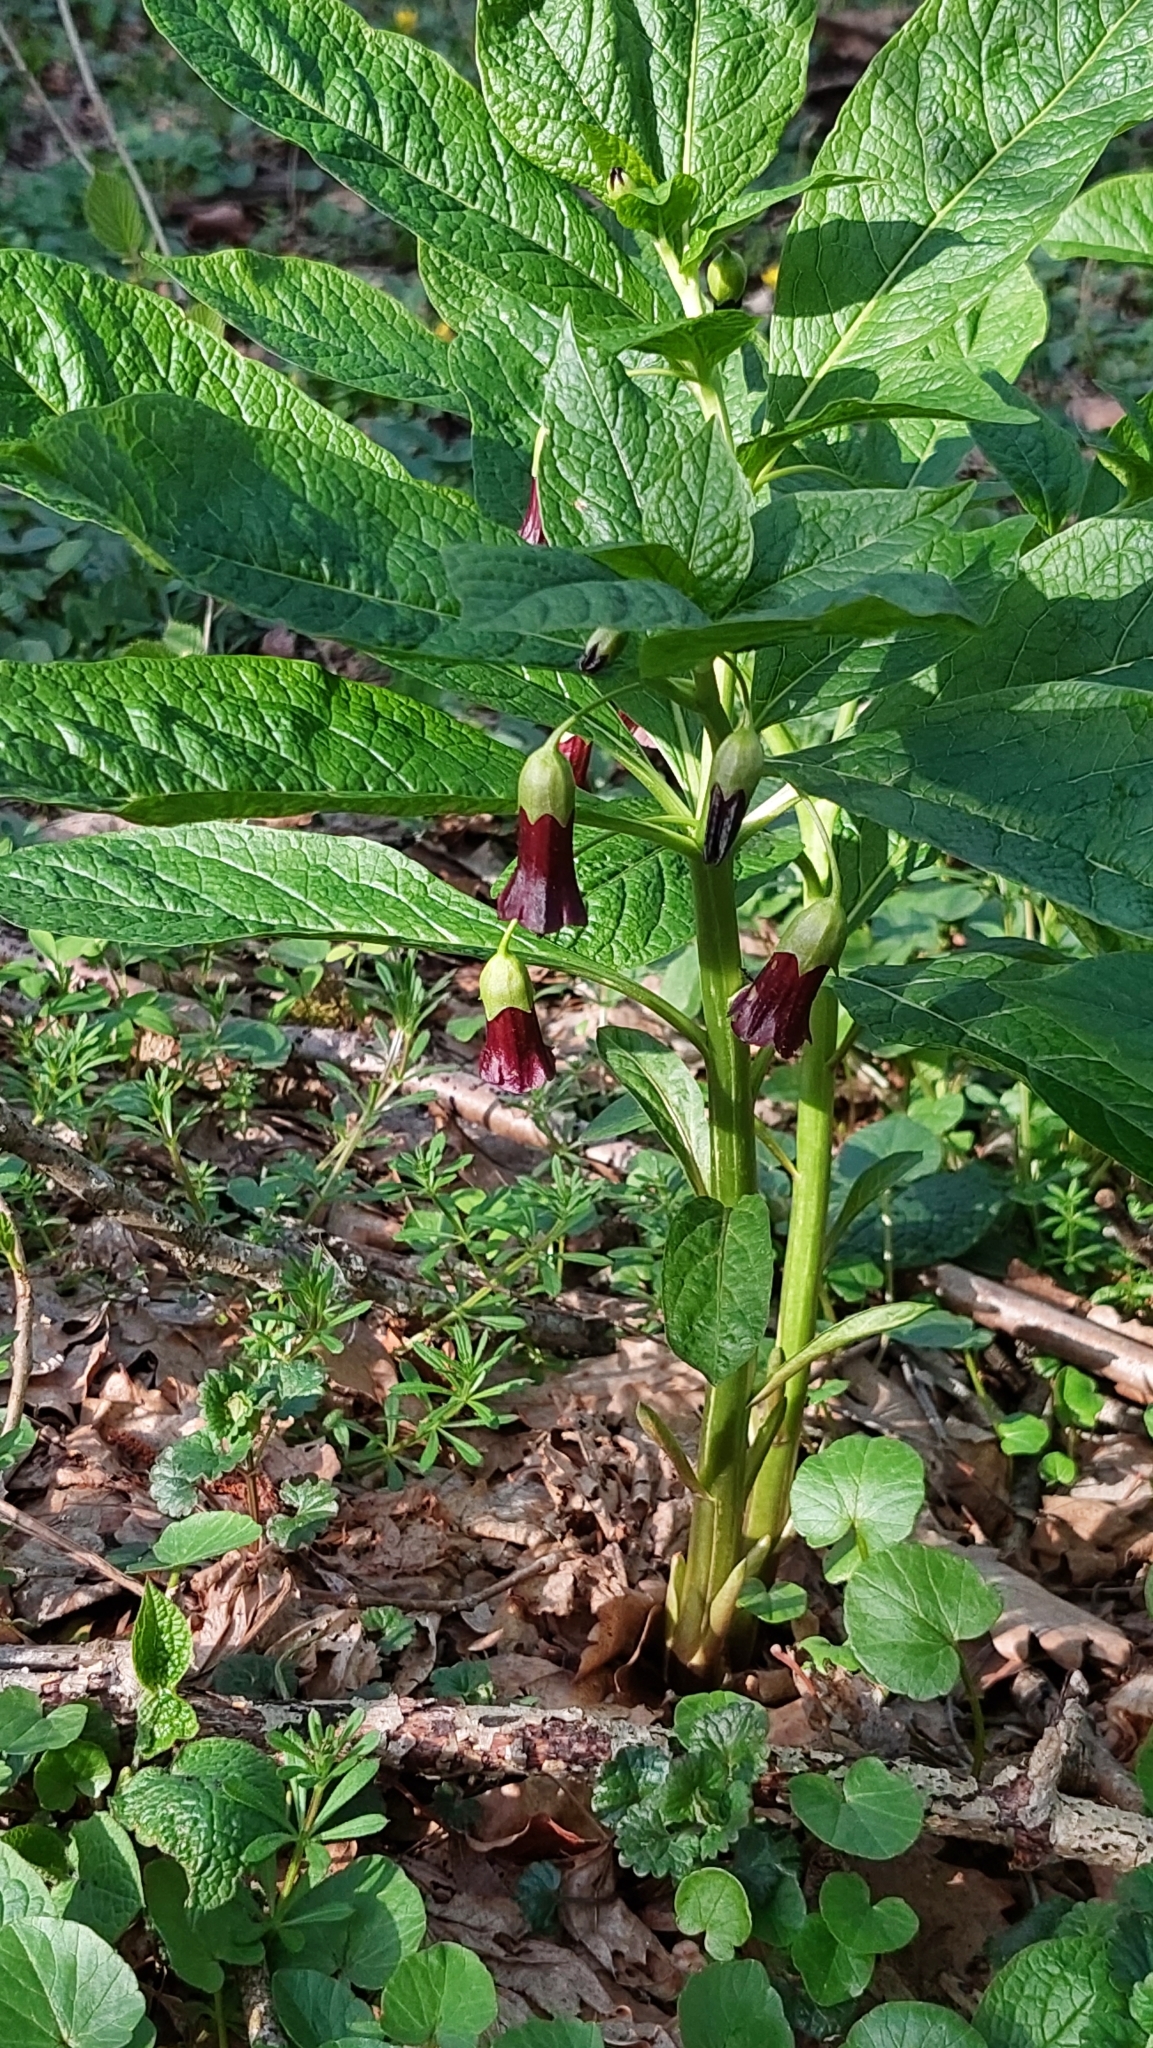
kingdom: Plantae
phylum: Tracheophyta
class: Magnoliopsida
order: Solanales
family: Solanaceae
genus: Scopolia
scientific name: Scopolia carniolica
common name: Scopolia
